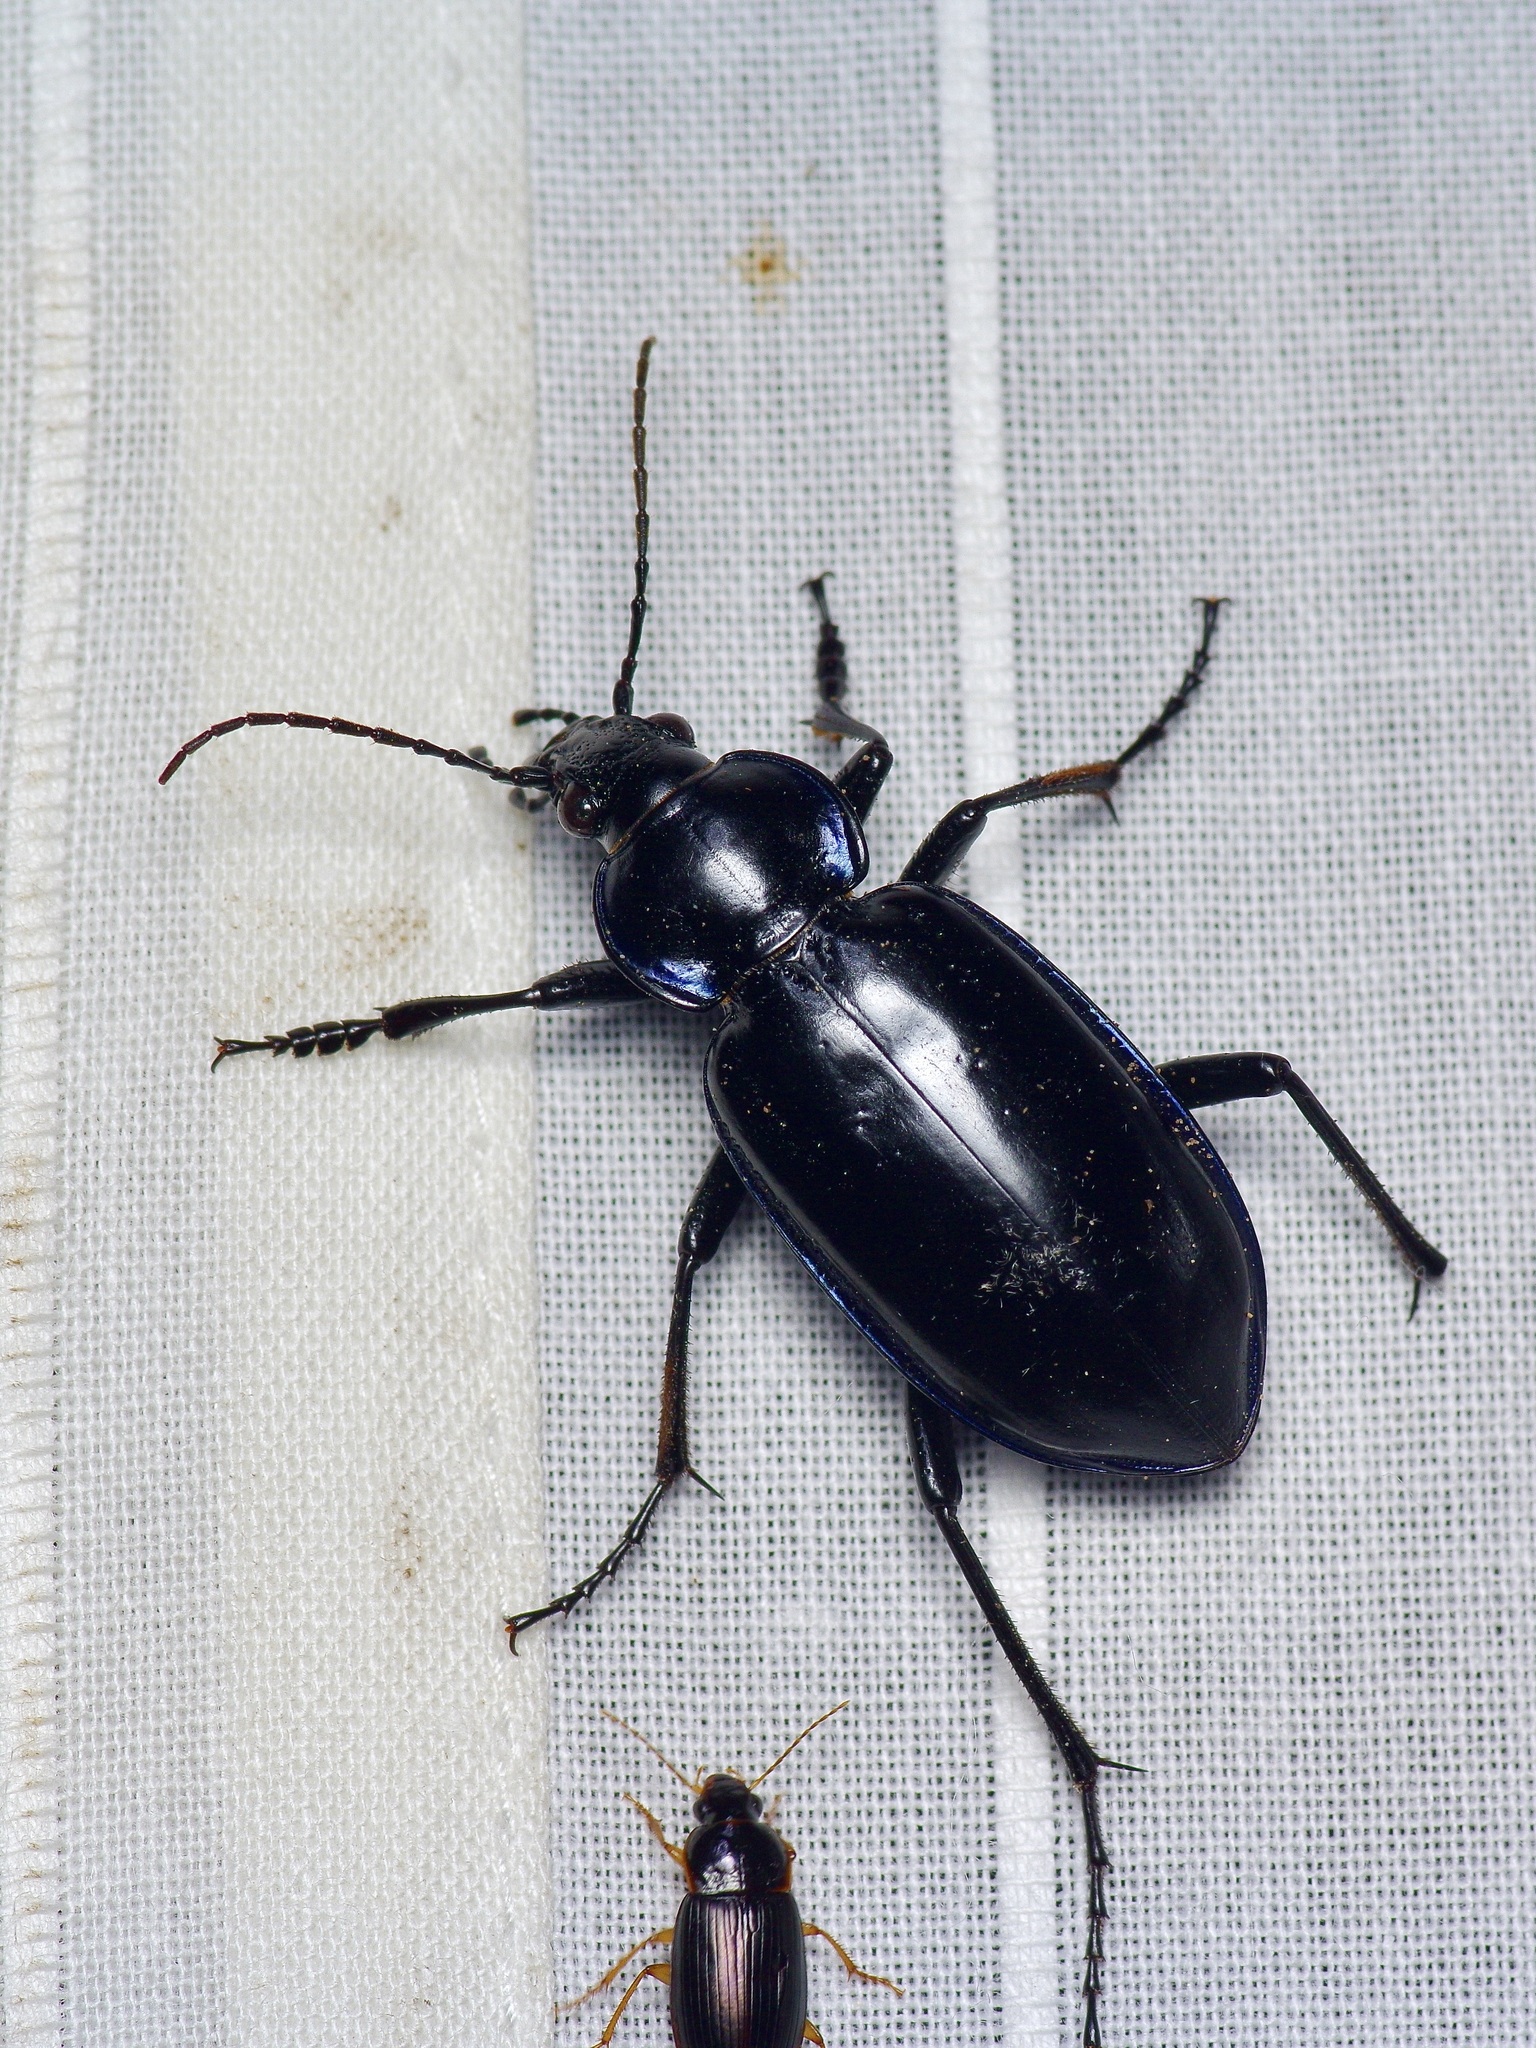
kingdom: Animalia
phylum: Arthropoda
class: Insecta
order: Coleoptera
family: Carabidae
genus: Calosoma
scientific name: Calosoma macrum
